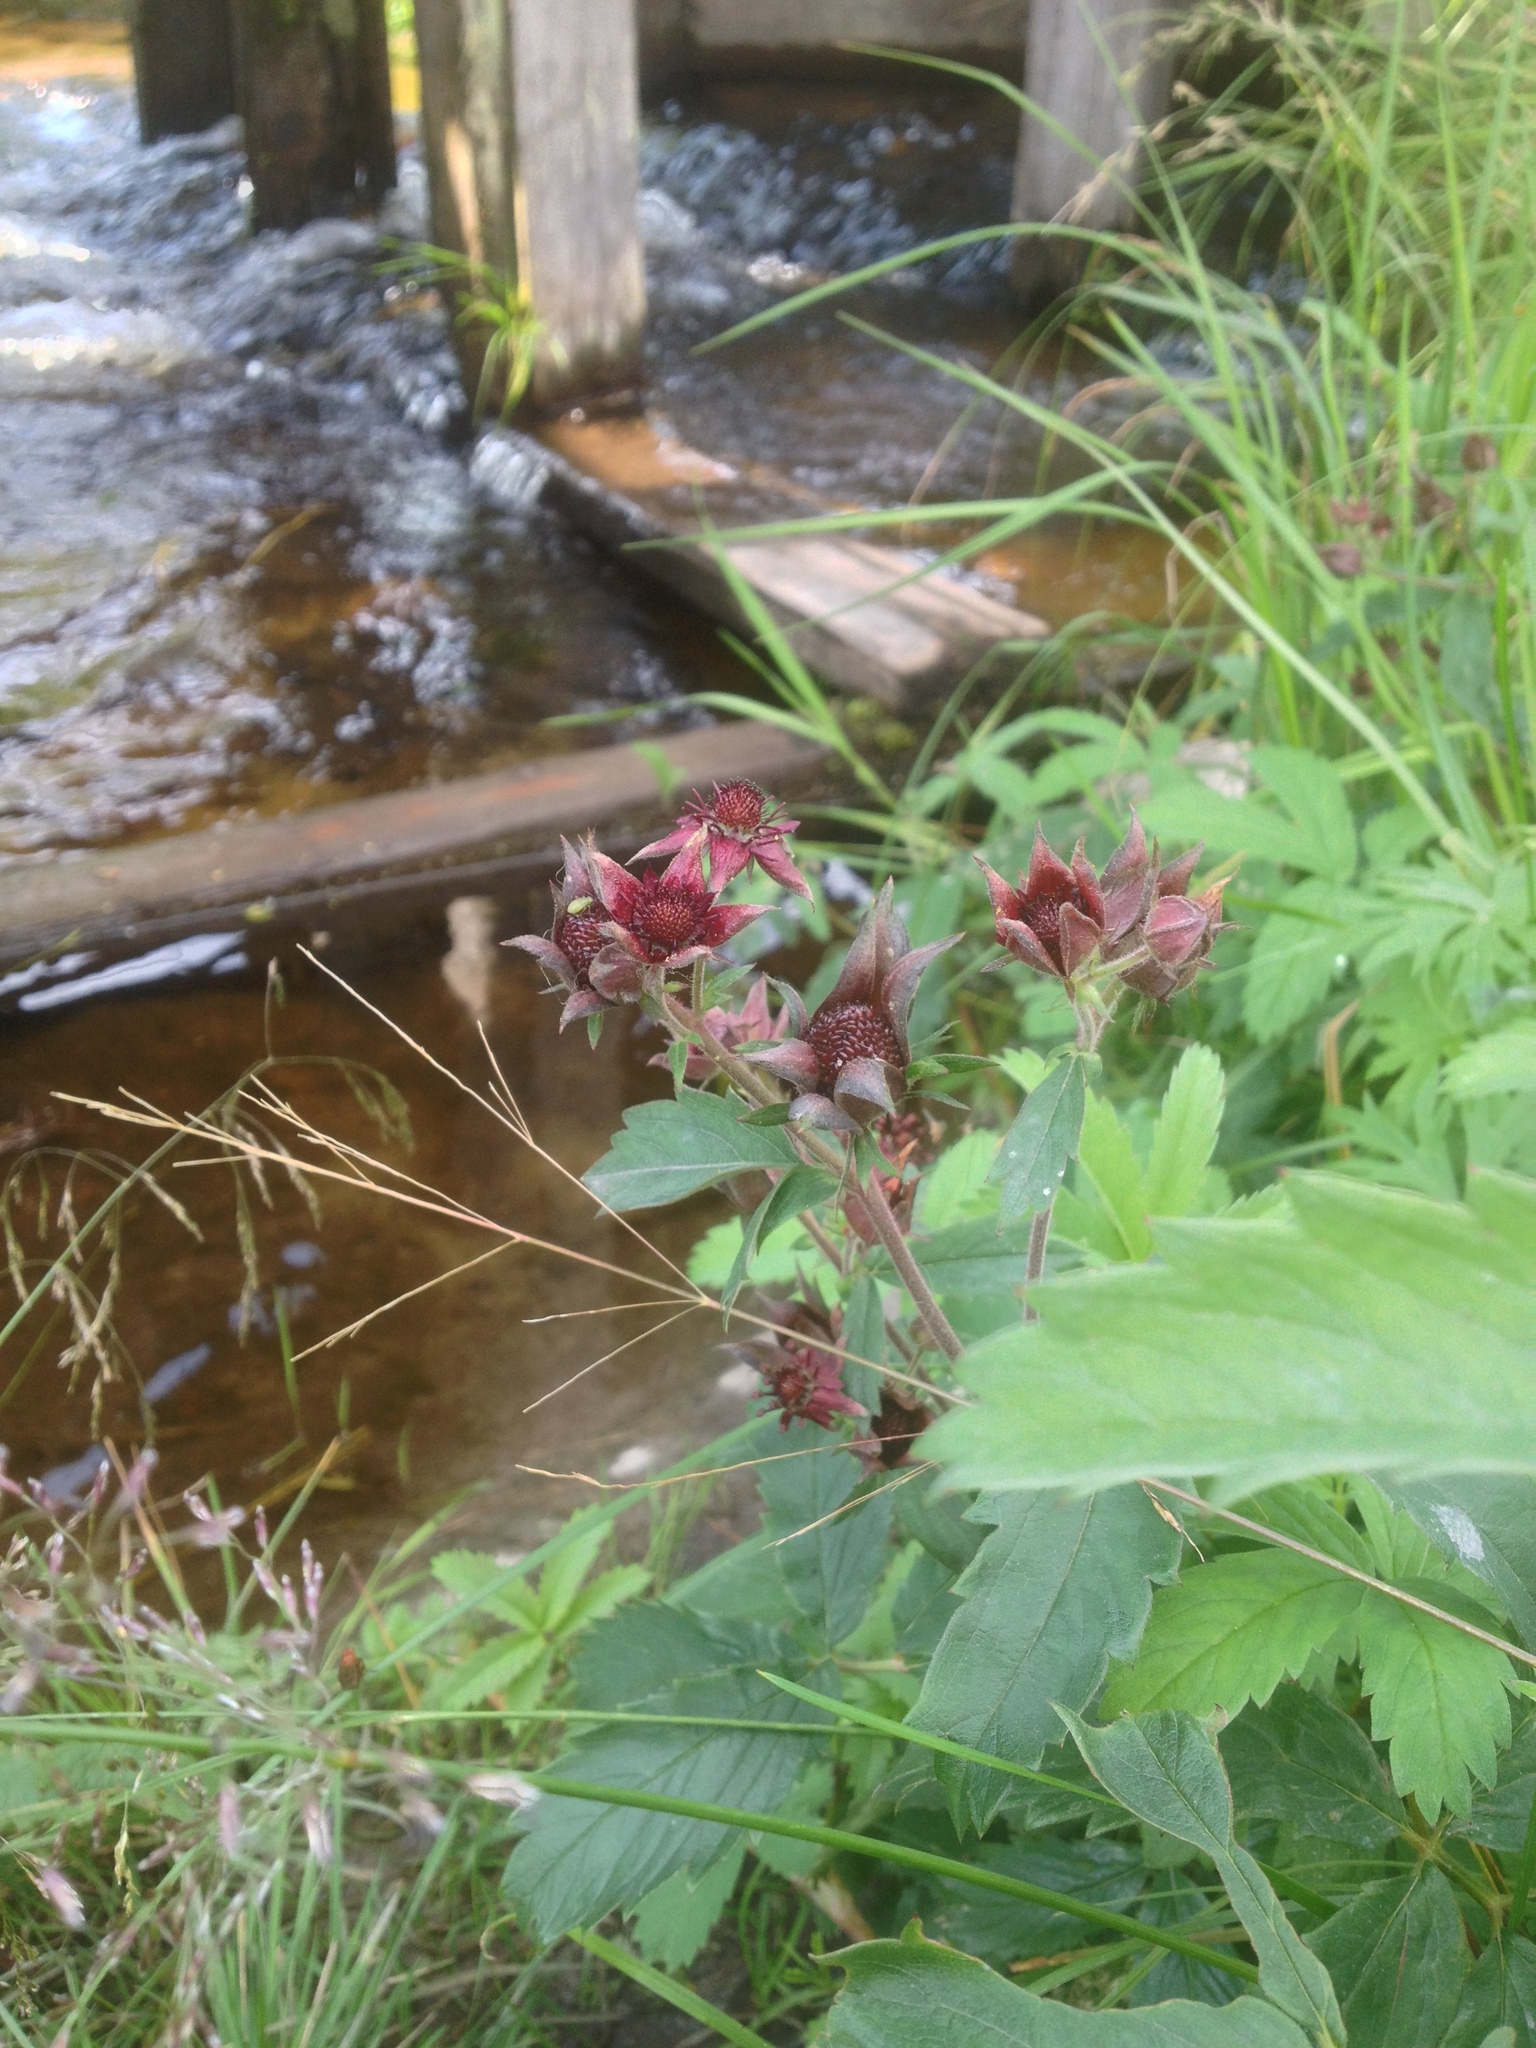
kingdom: Plantae
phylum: Tracheophyta
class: Magnoliopsida
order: Rosales
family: Rosaceae
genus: Comarum
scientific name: Comarum palustre
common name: Marsh cinquefoil
